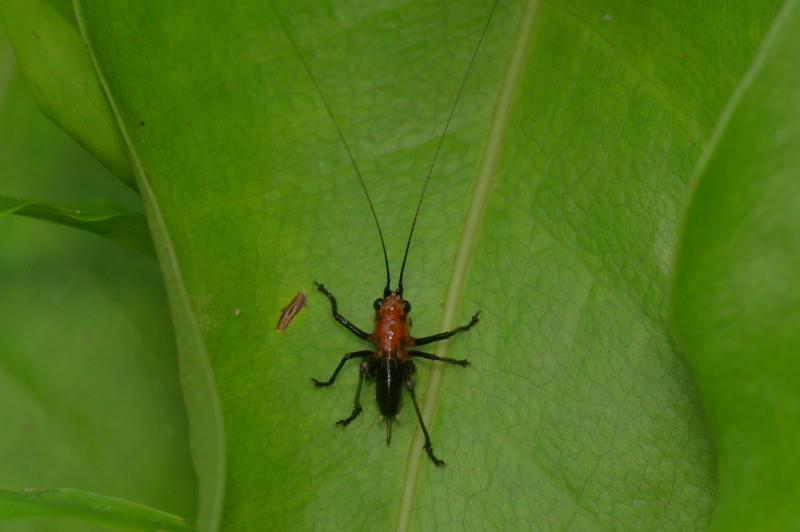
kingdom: Animalia
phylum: Arthropoda
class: Insecta
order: Orthoptera
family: Tettigoniidae
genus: Conocephalus
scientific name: Conocephalus melaenus
